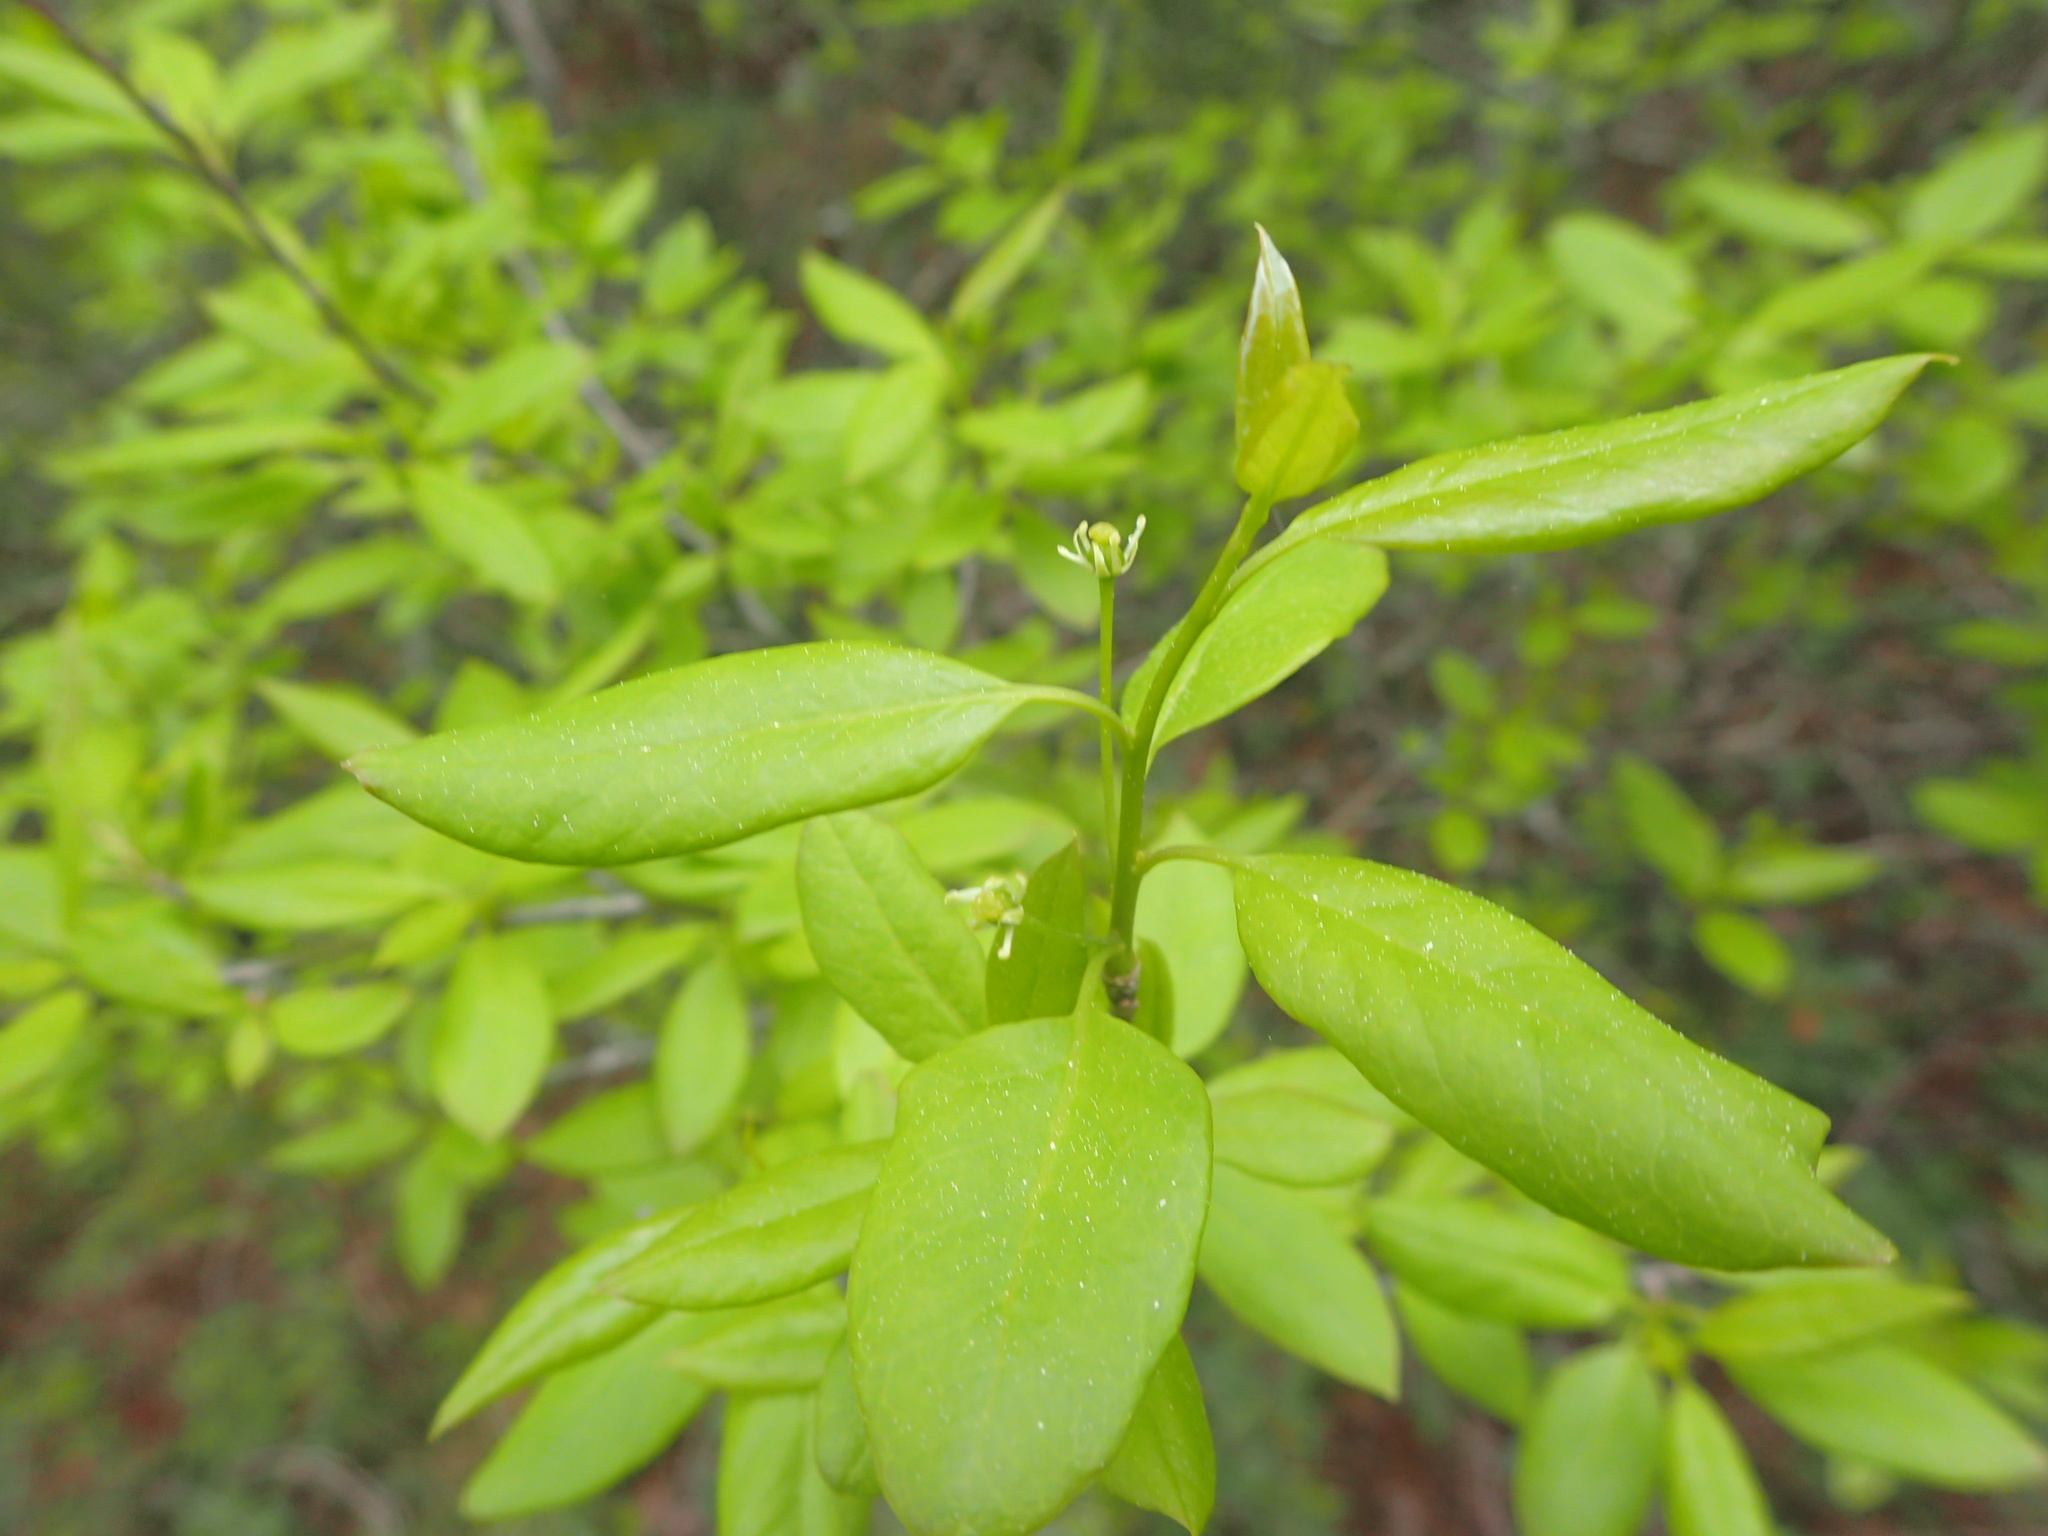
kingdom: Plantae
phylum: Tracheophyta
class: Magnoliopsida
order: Aquifoliales
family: Aquifoliaceae
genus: Ilex
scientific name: Ilex mucronata
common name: Catberry
